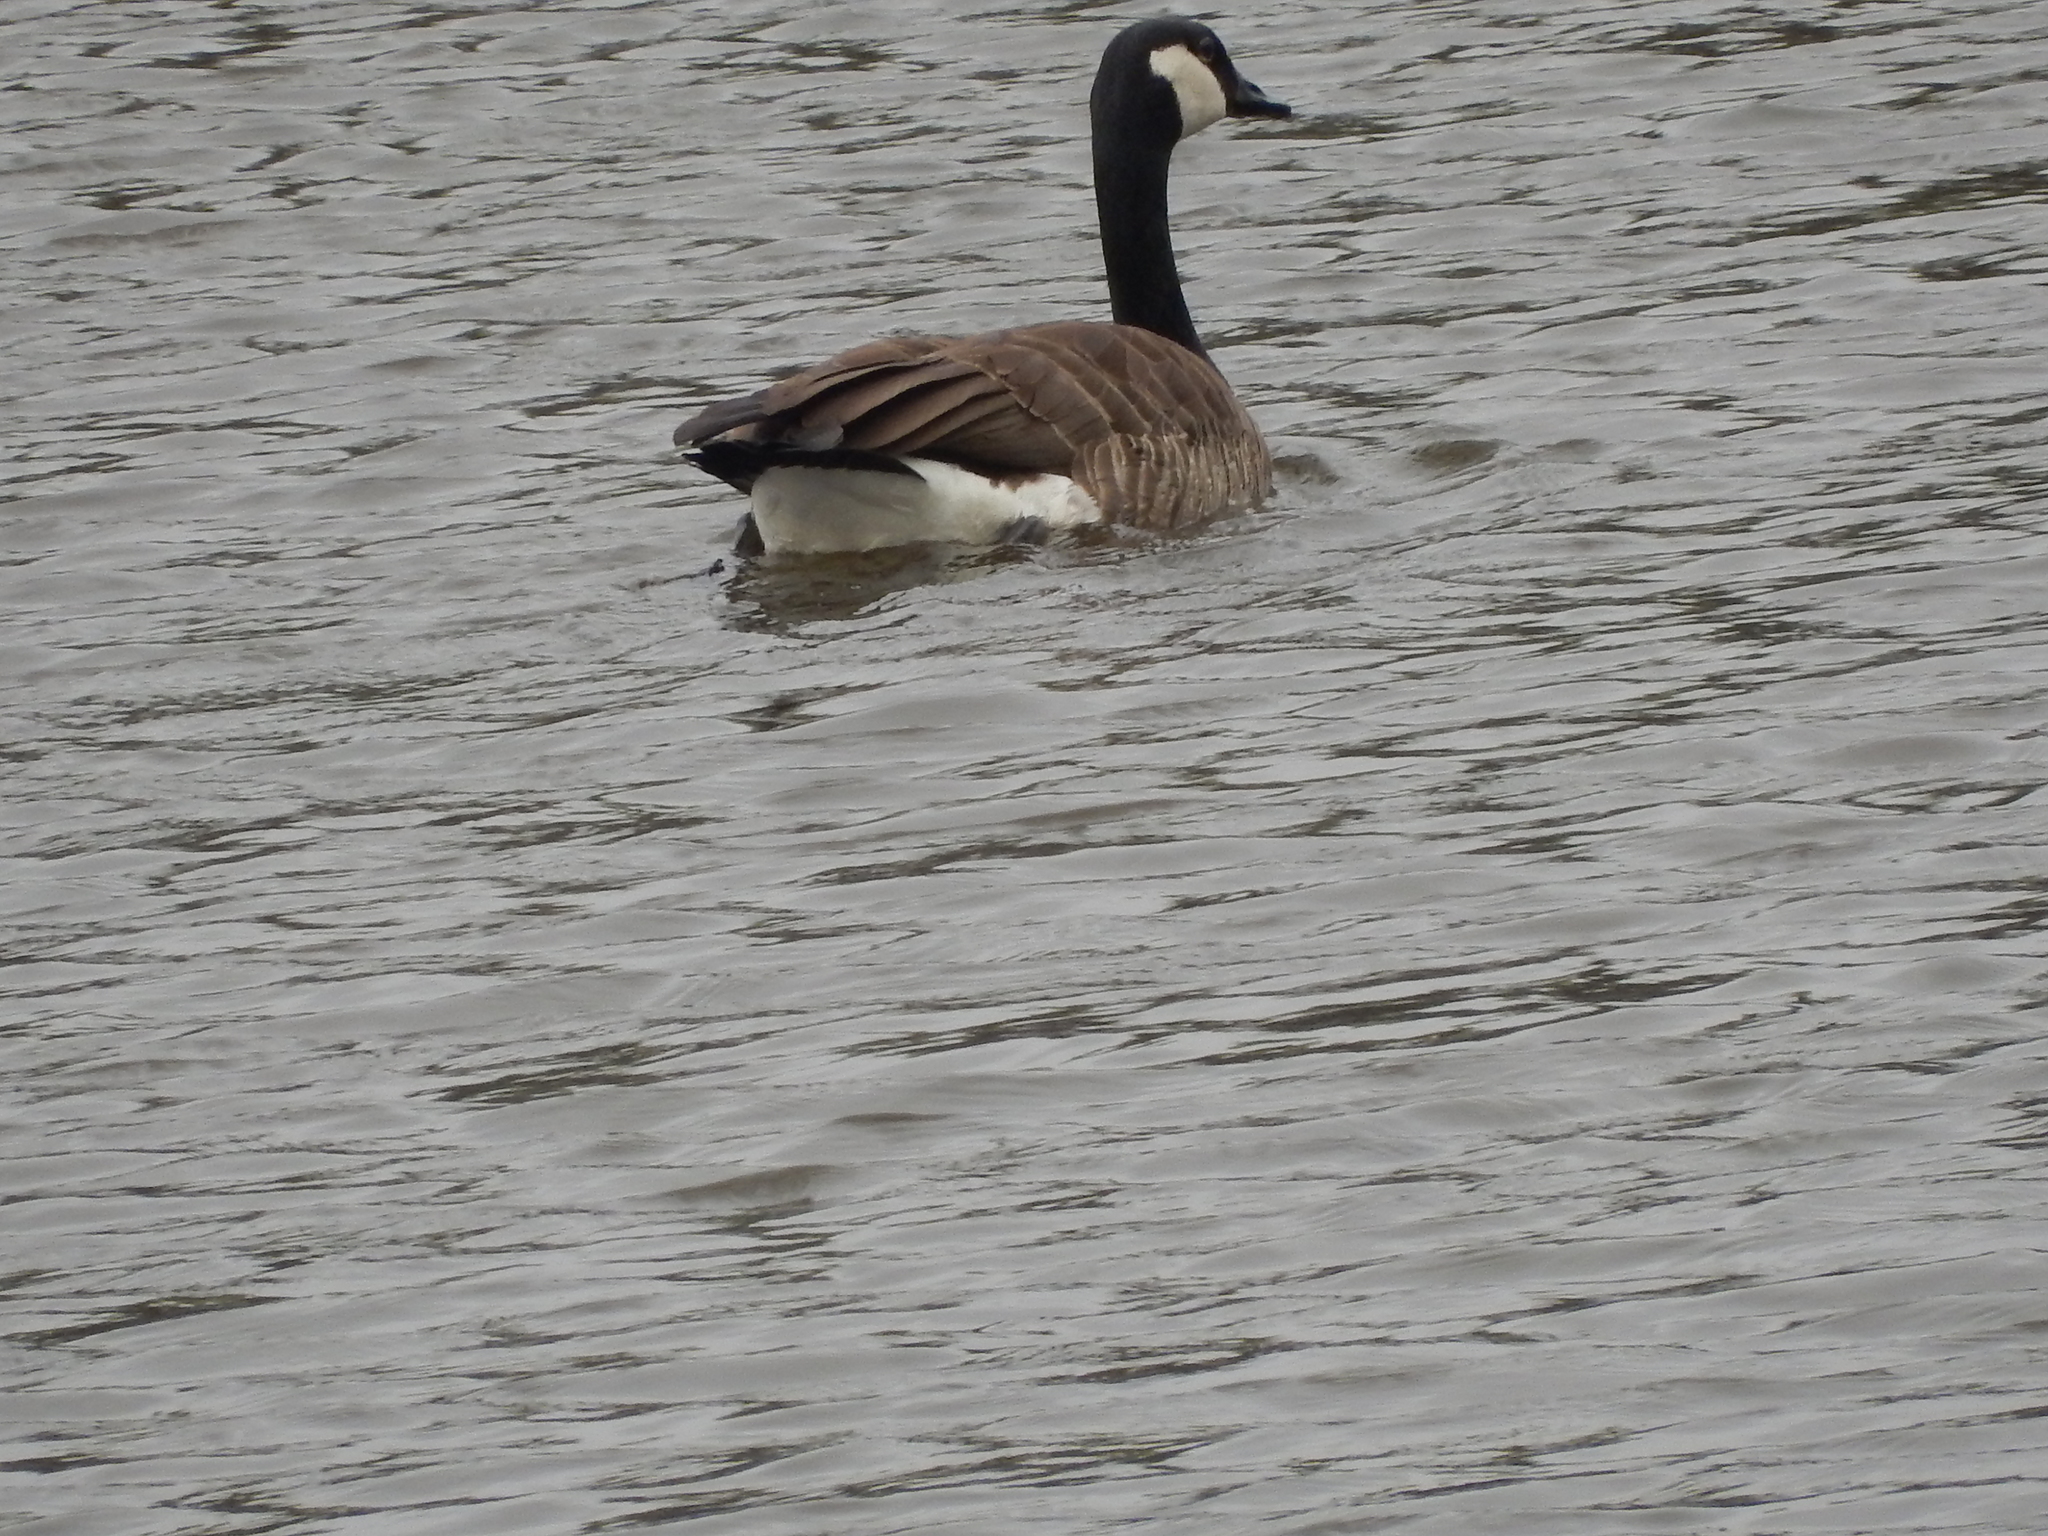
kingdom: Animalia
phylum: Chordata
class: Aves
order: Anseriformes
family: Anatidae
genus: Branta
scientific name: Branta canadensis
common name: Canada goose
